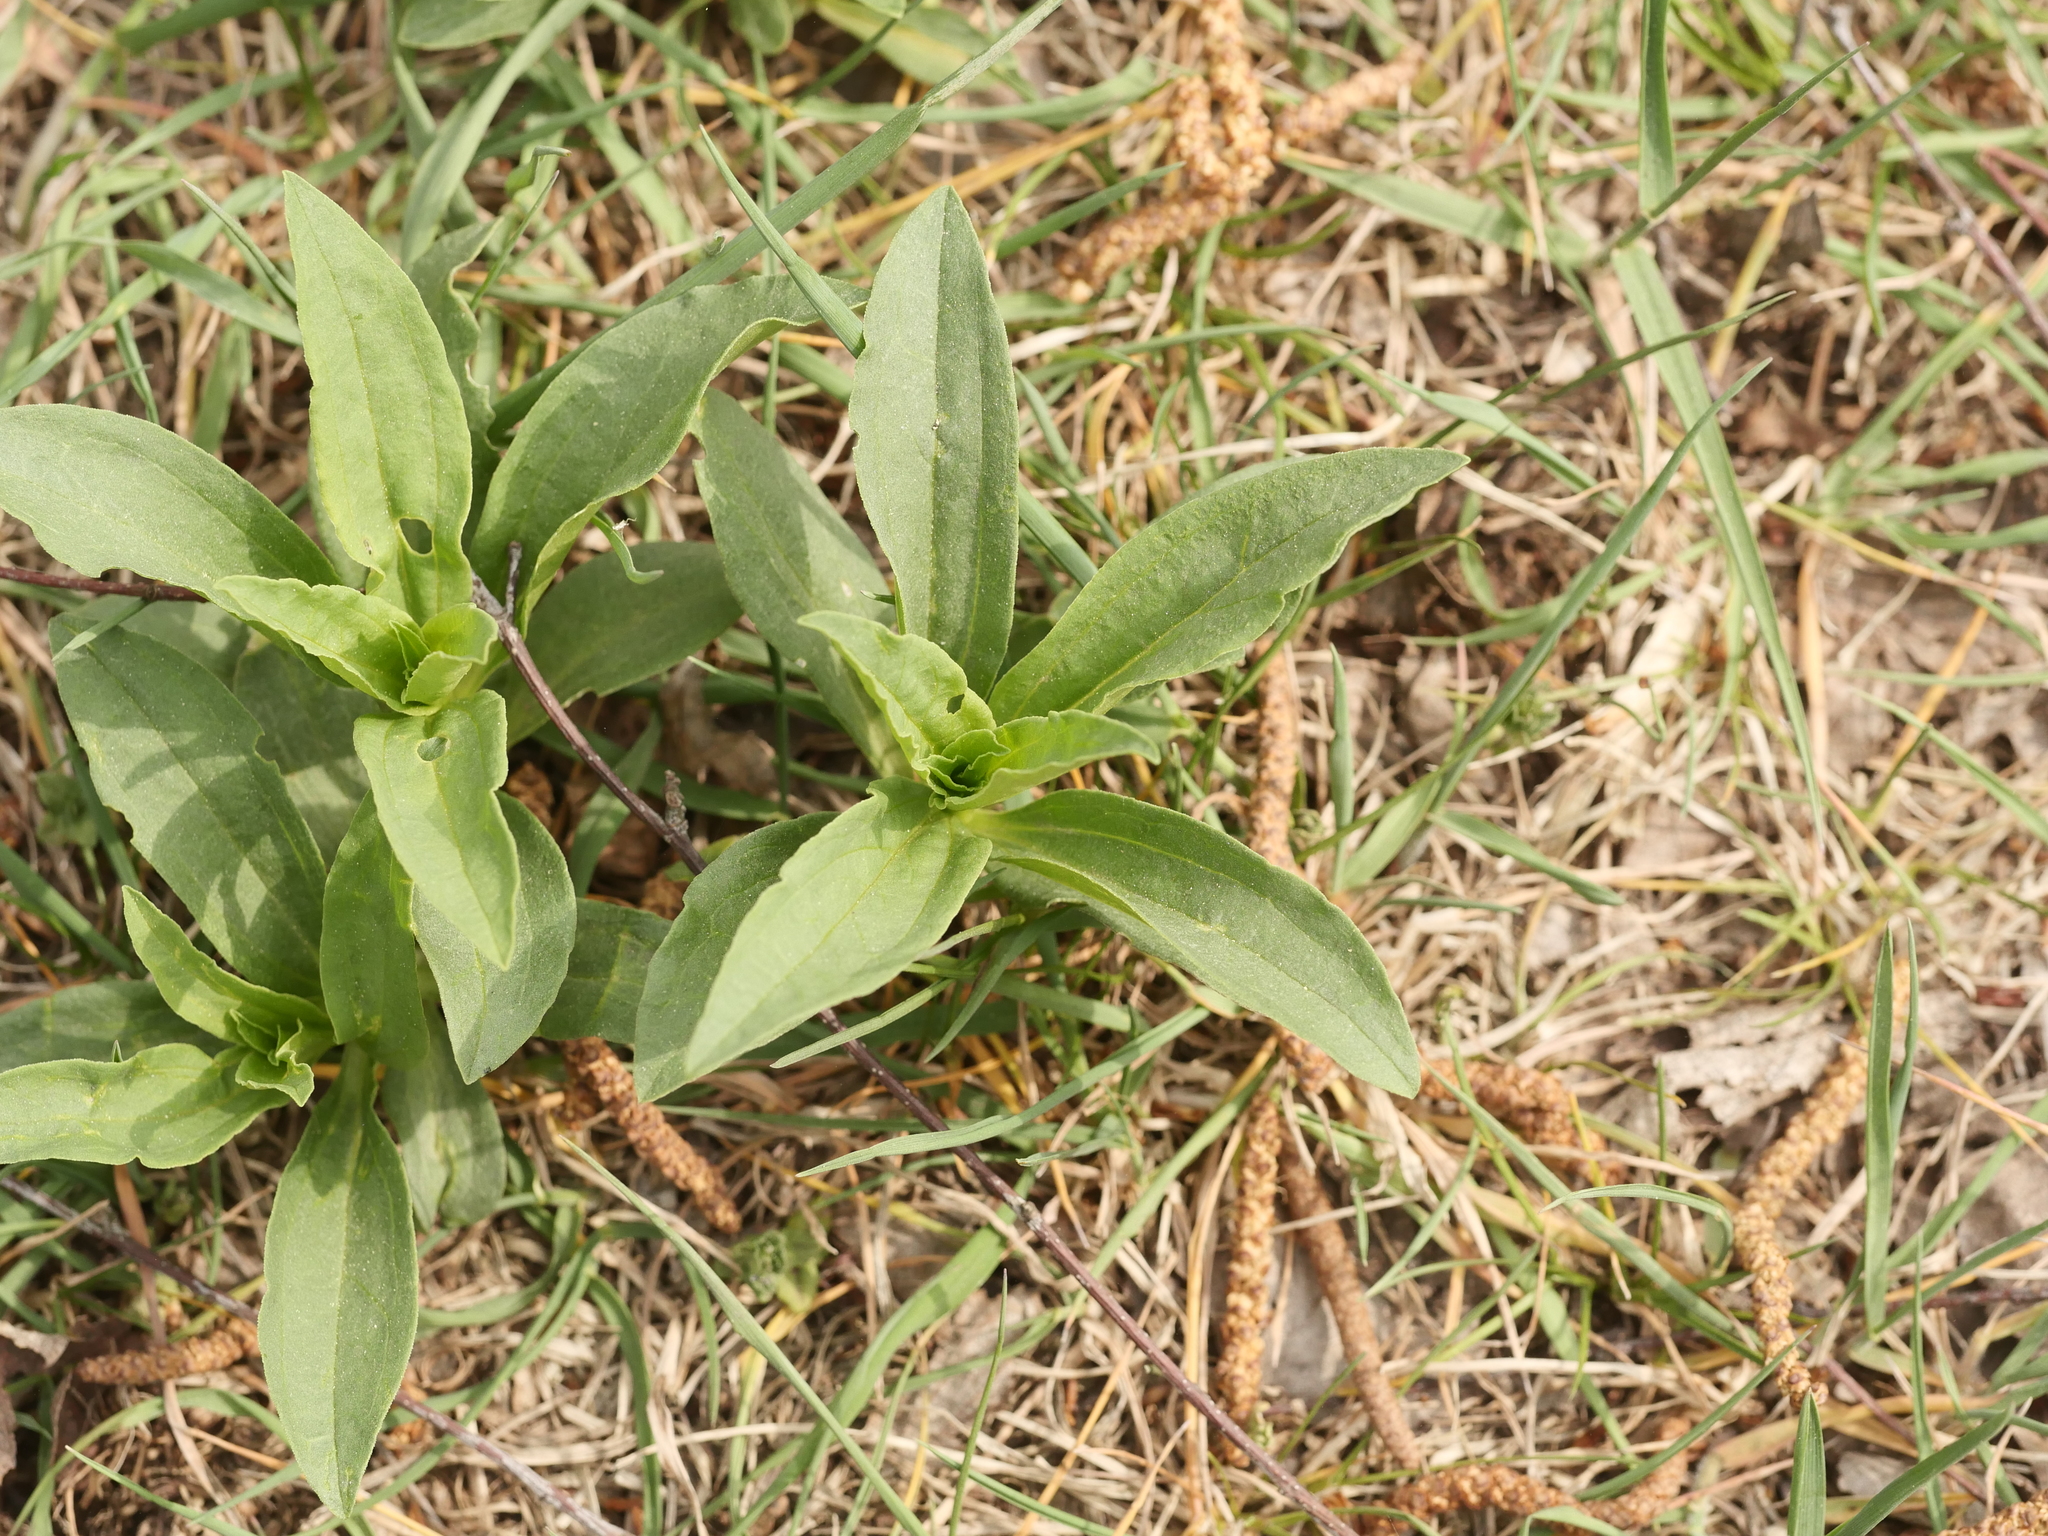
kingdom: Plantae
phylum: Tracheophyta
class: Magnoliopsida
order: Caryophyllales
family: Caryophyllaceae
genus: Saponaria
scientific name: Saponaria officinalis
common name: Soapwort
